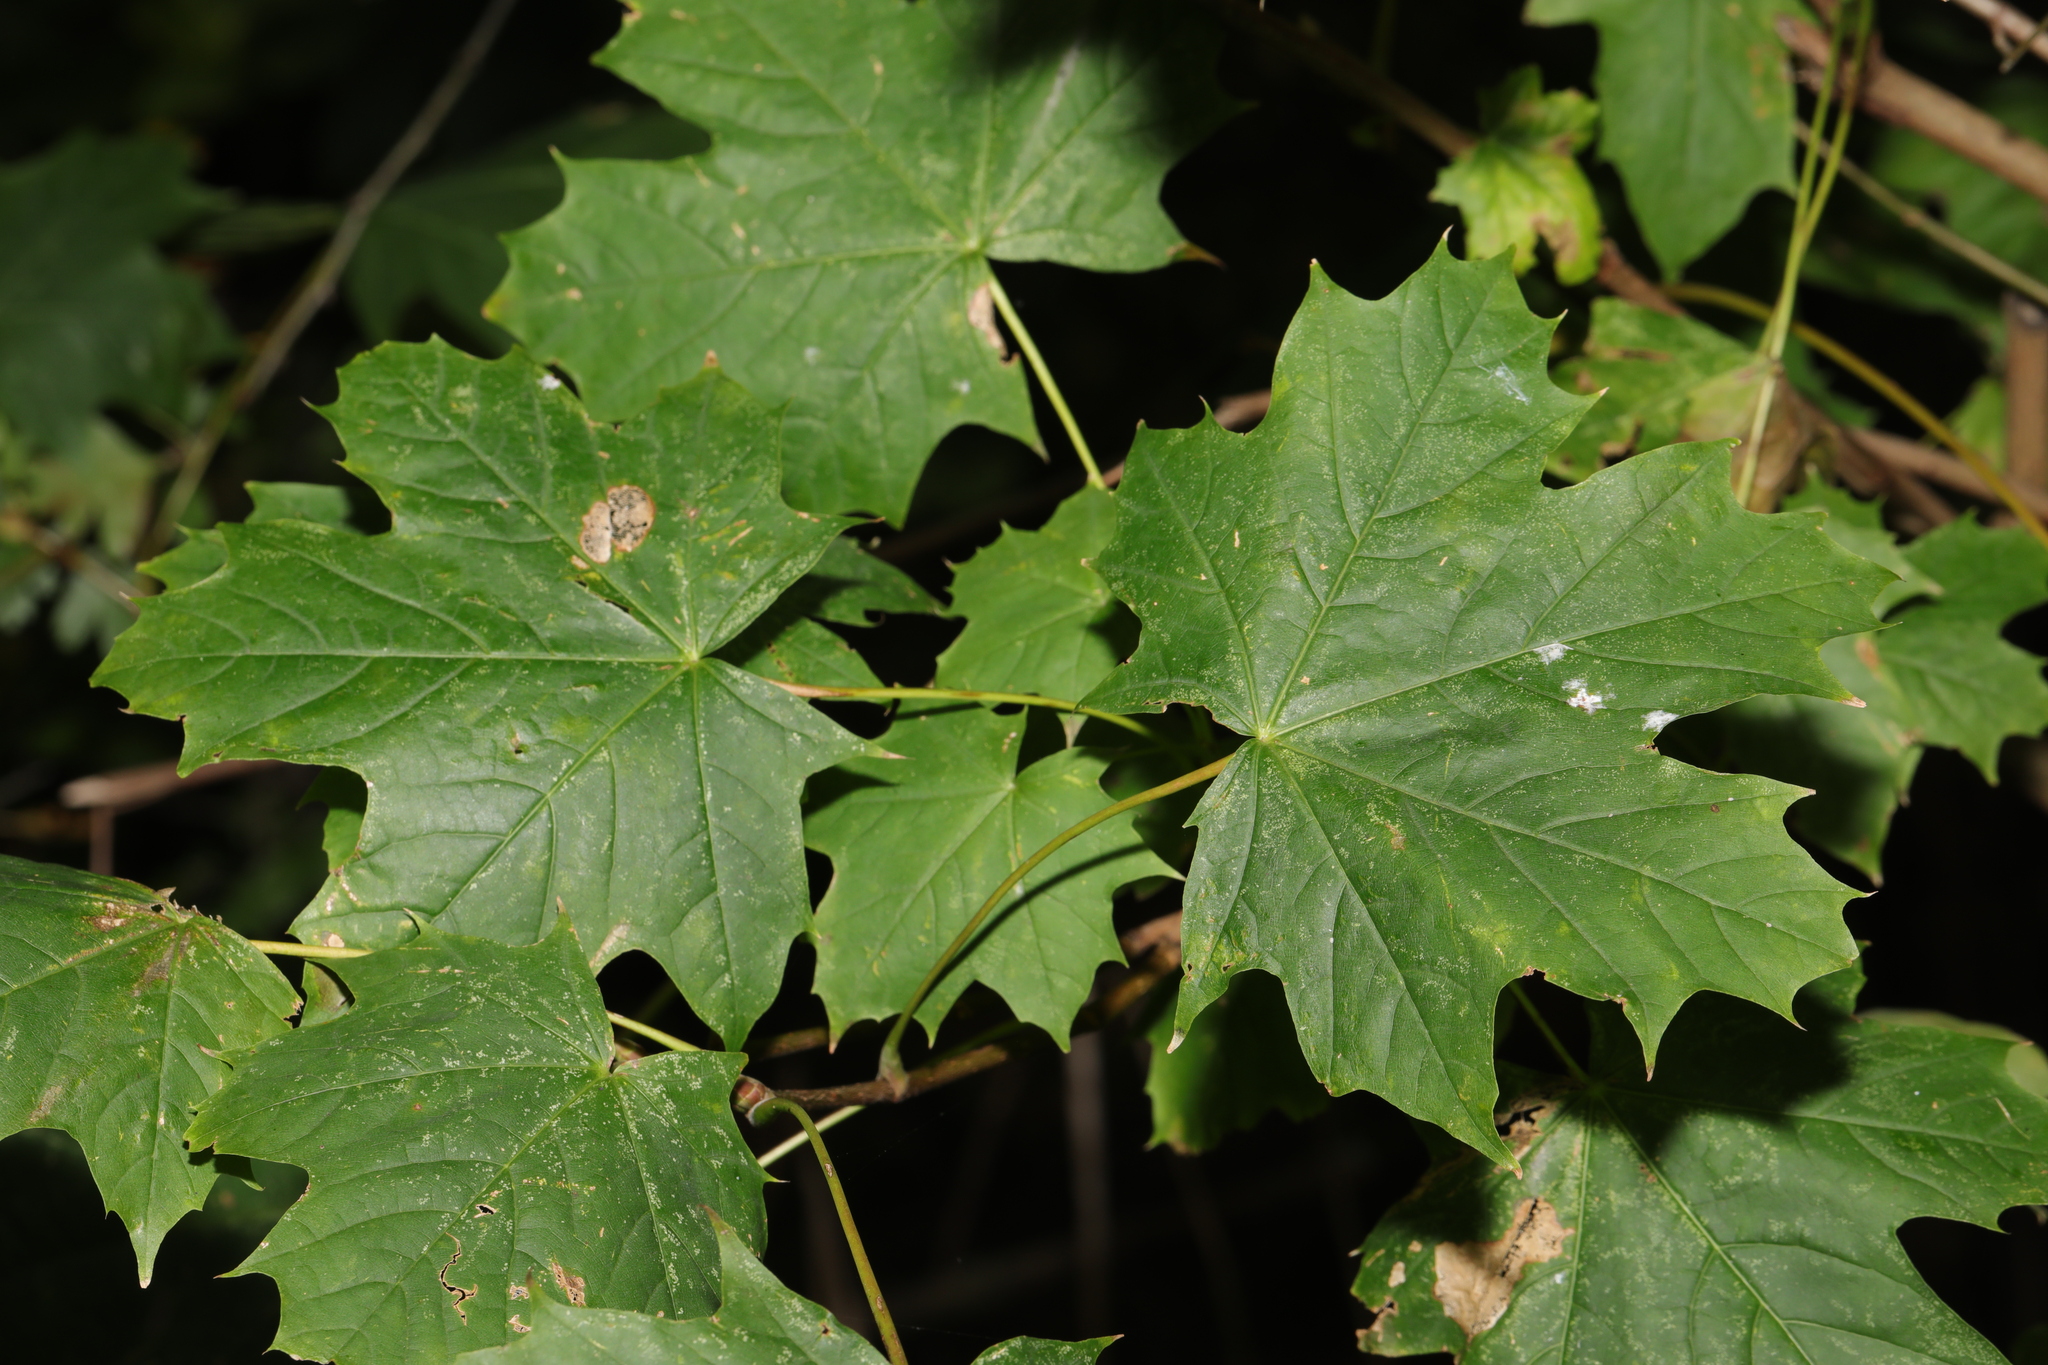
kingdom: Plantae
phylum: Tracheophyta
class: Magnoliopsida
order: Sapindales
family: Sapindaceae
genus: Acer
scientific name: Acer platanoides
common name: Norway maple
